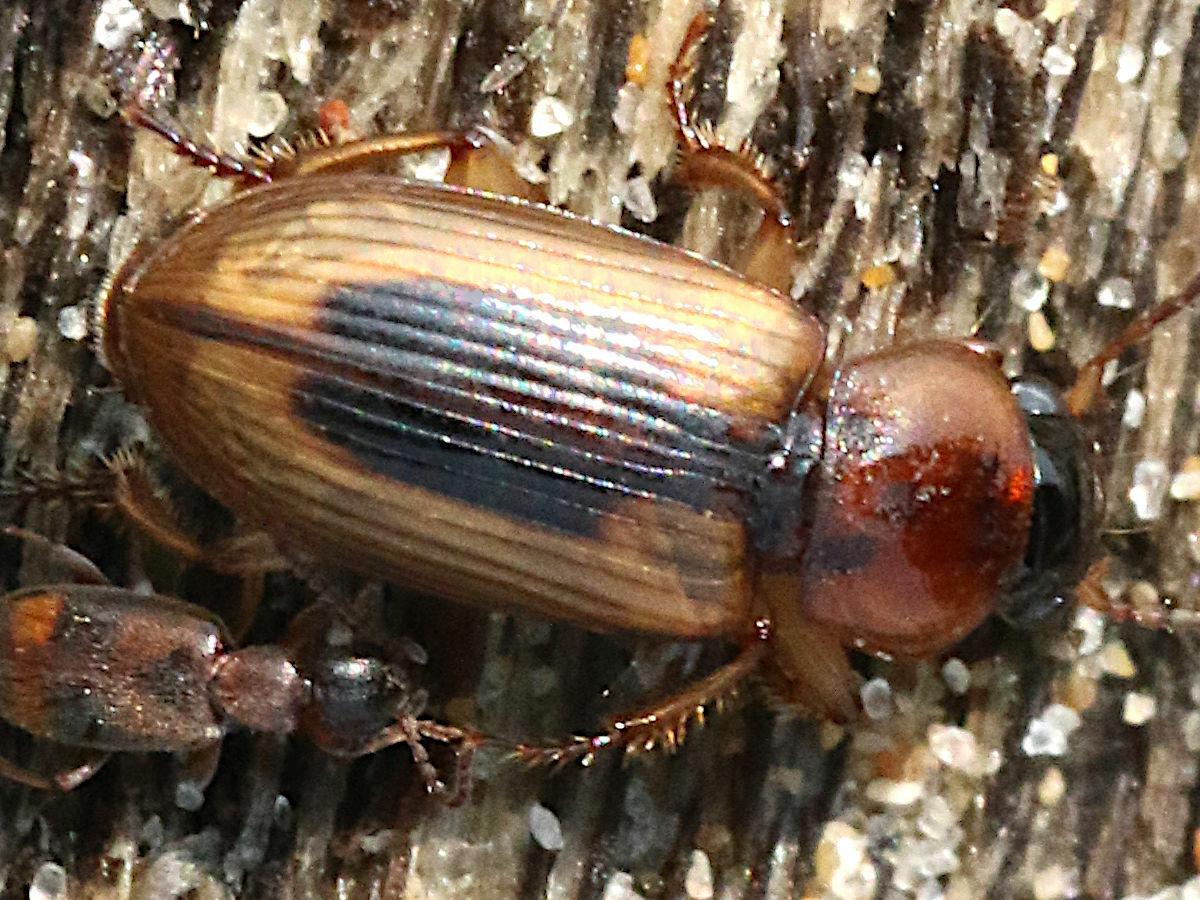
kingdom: Animalia
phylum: Arthropoda
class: Insecta
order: Coleoptera
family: Carabidae
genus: Stenolophus
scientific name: Stenolophus lecontei
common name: Leconte's seedcorn beetle
